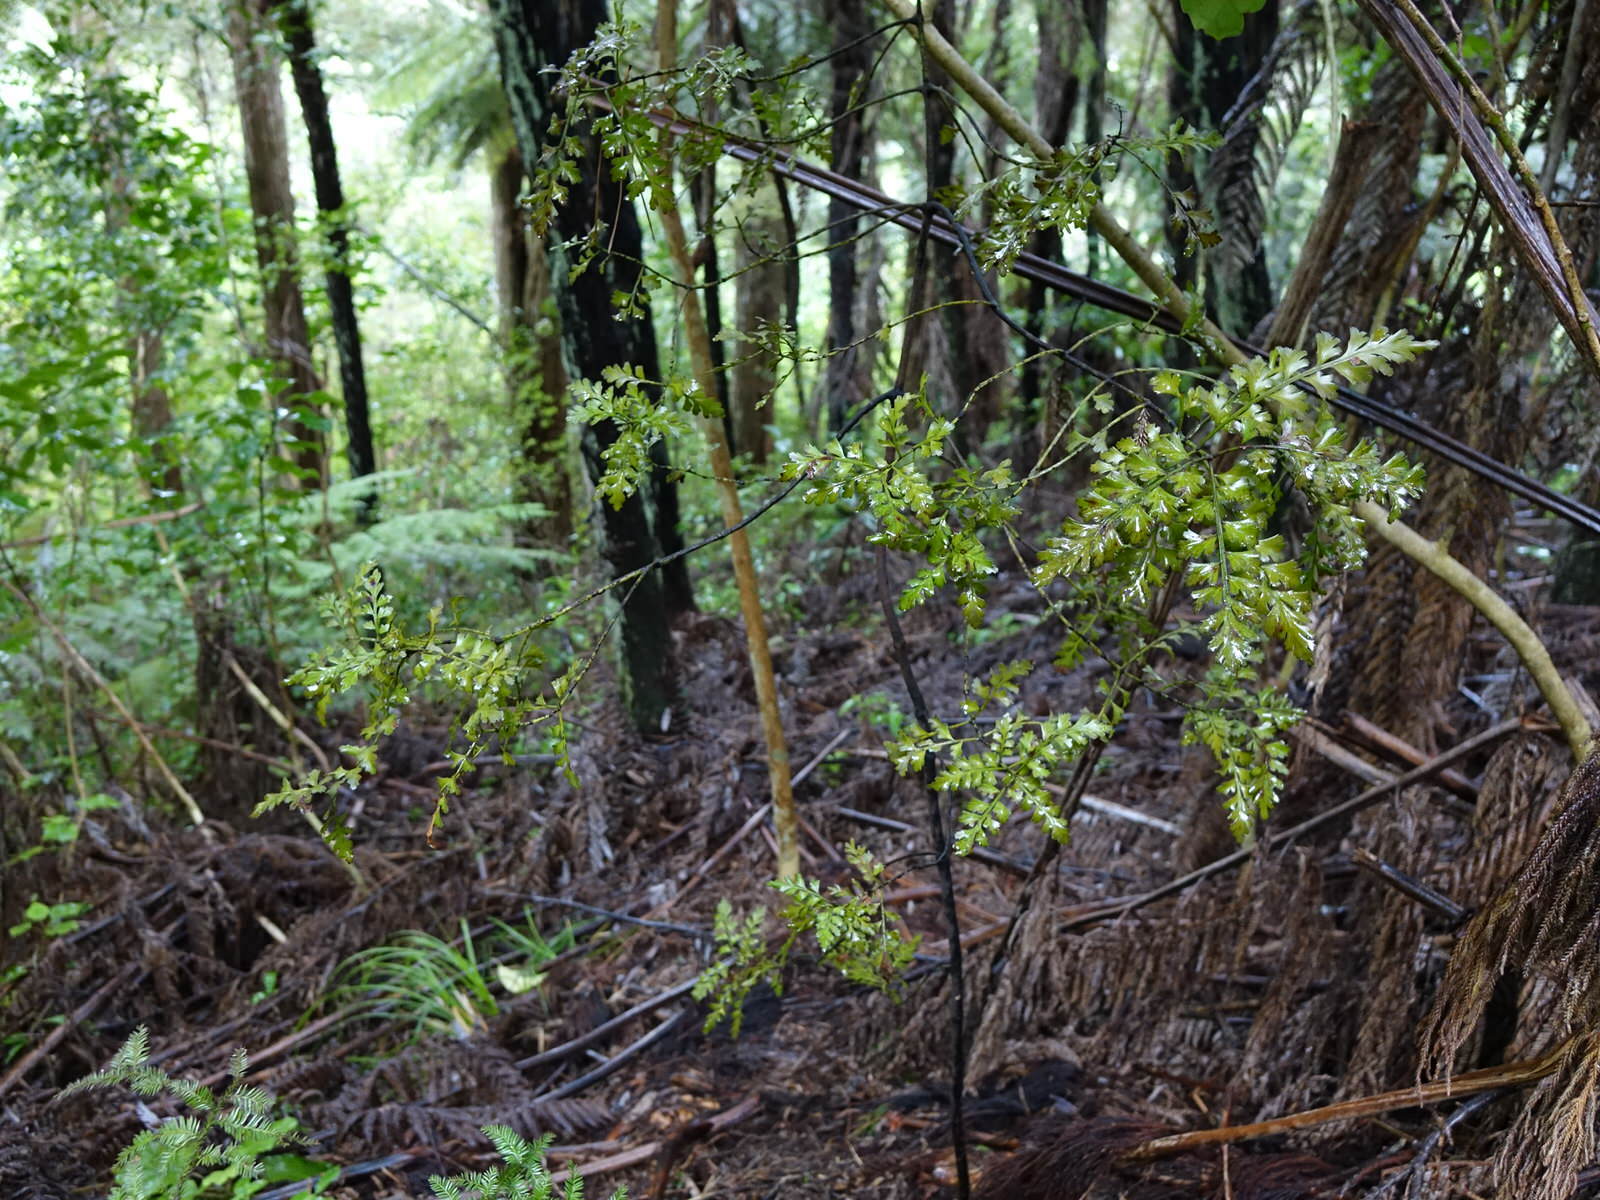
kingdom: Plantae
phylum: Tracheophyta
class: Pinopsida
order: Pinales
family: Phyllocladaceae
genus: Phyllocladus
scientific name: Phyllocladus trichomanoides
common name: Celery pine
